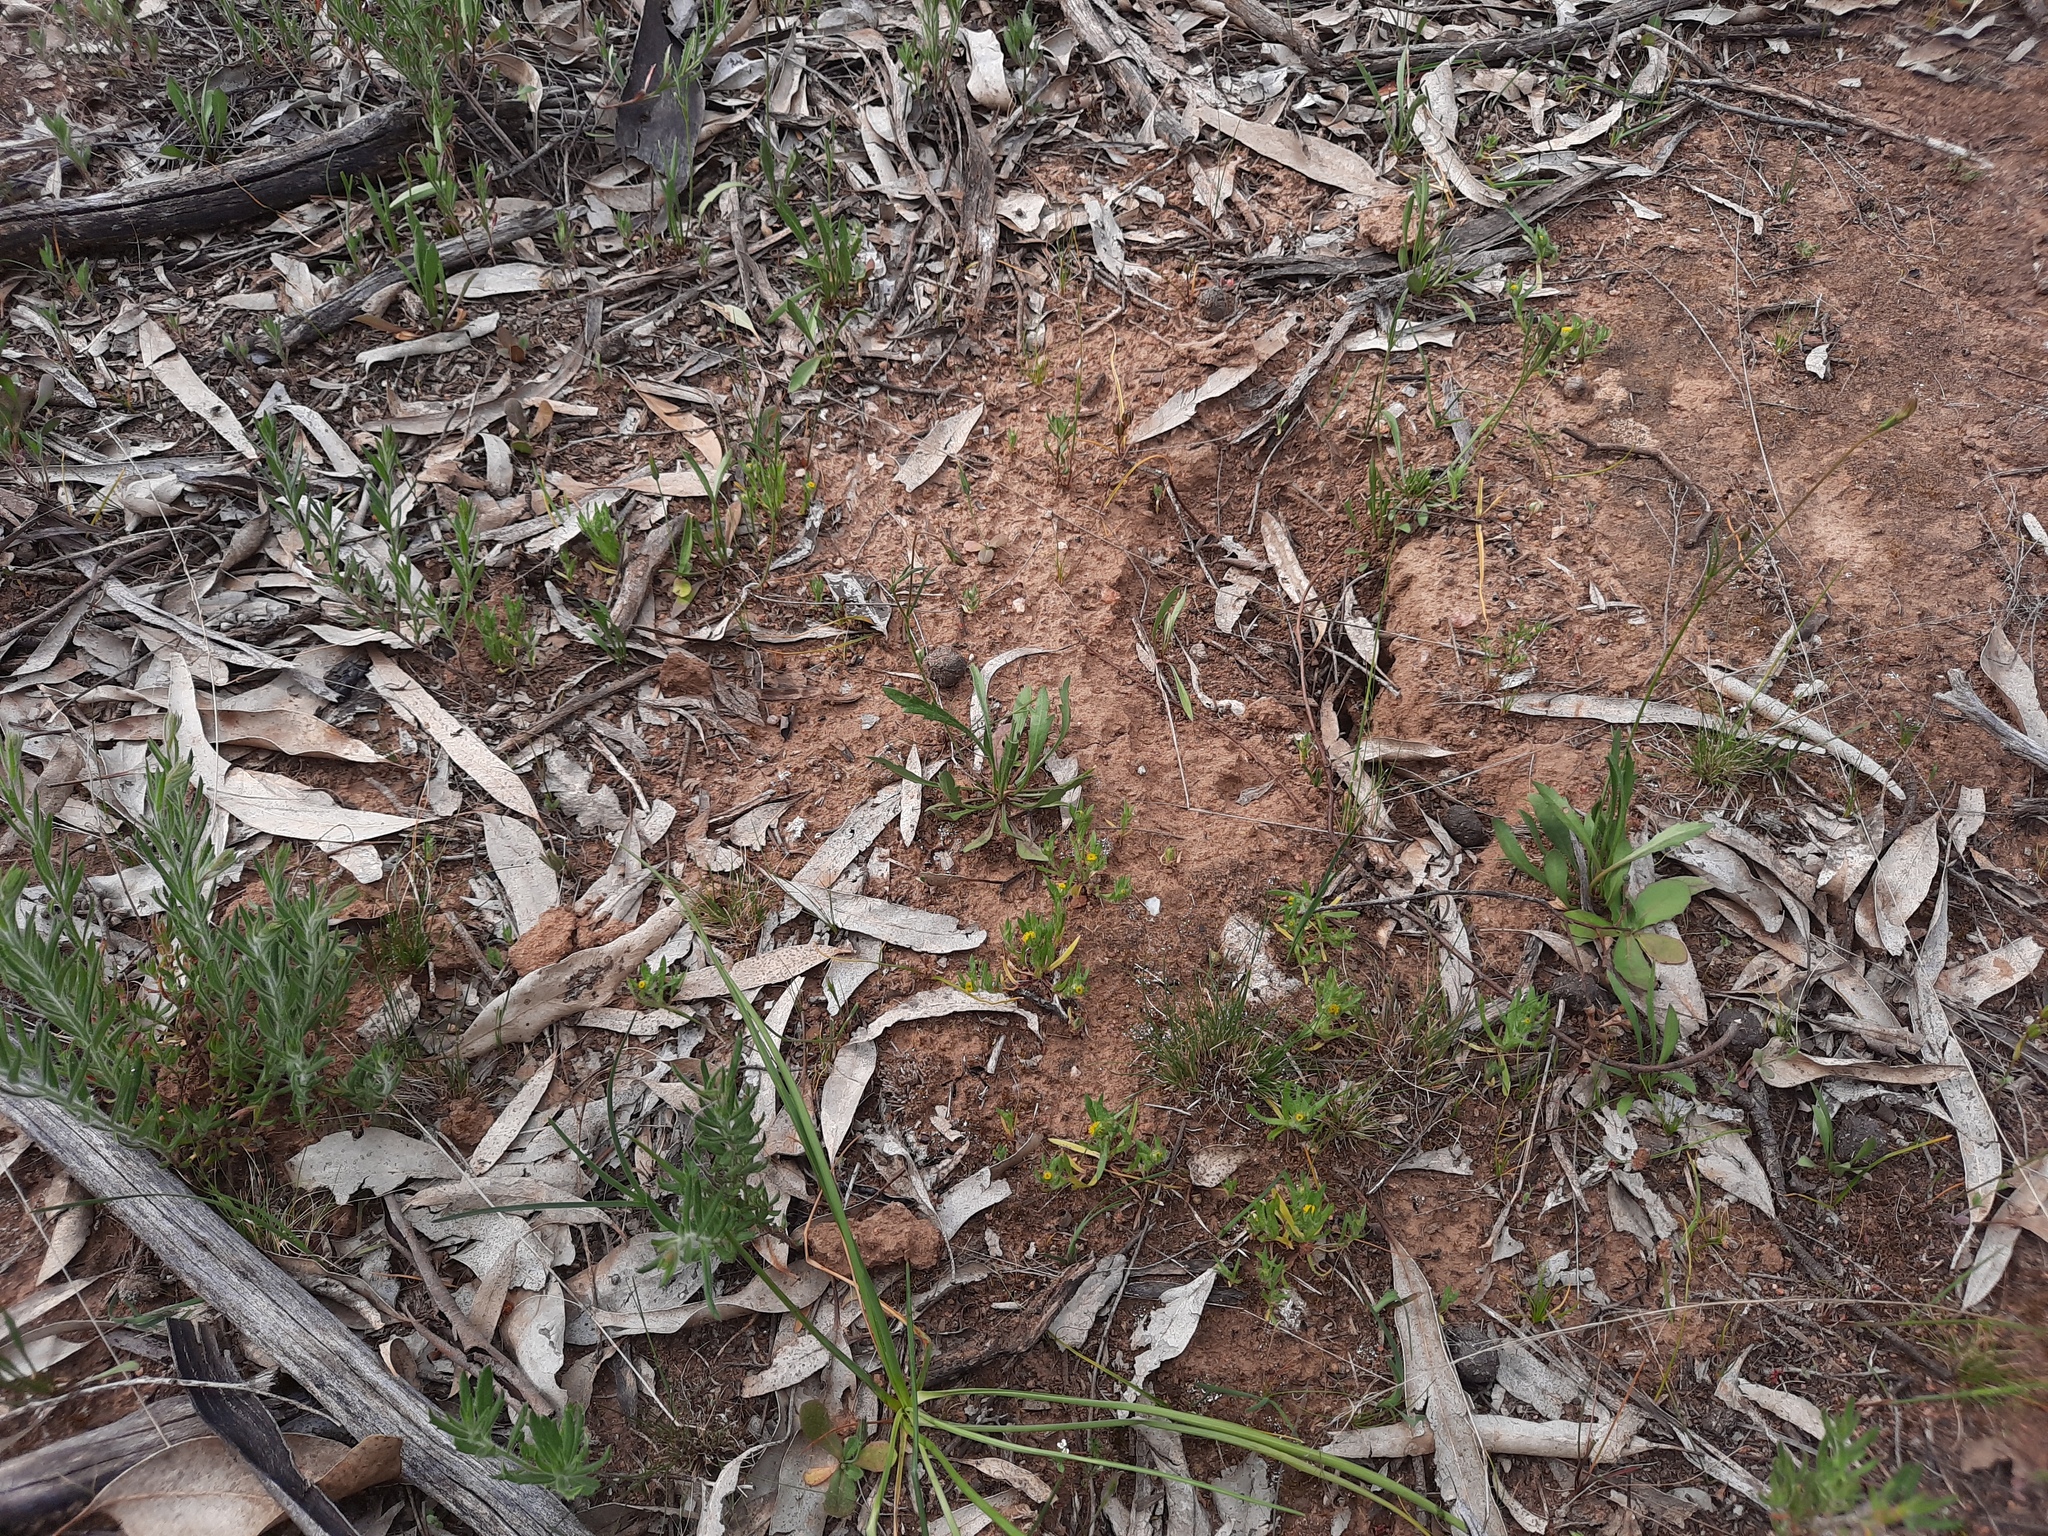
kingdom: Plantae
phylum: Tracheophyta
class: Magnoliopsida
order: Asterales
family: Asteraceae
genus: Triptilodiscus
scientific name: Triptilodiscus pygmaeus
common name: Common sunray
